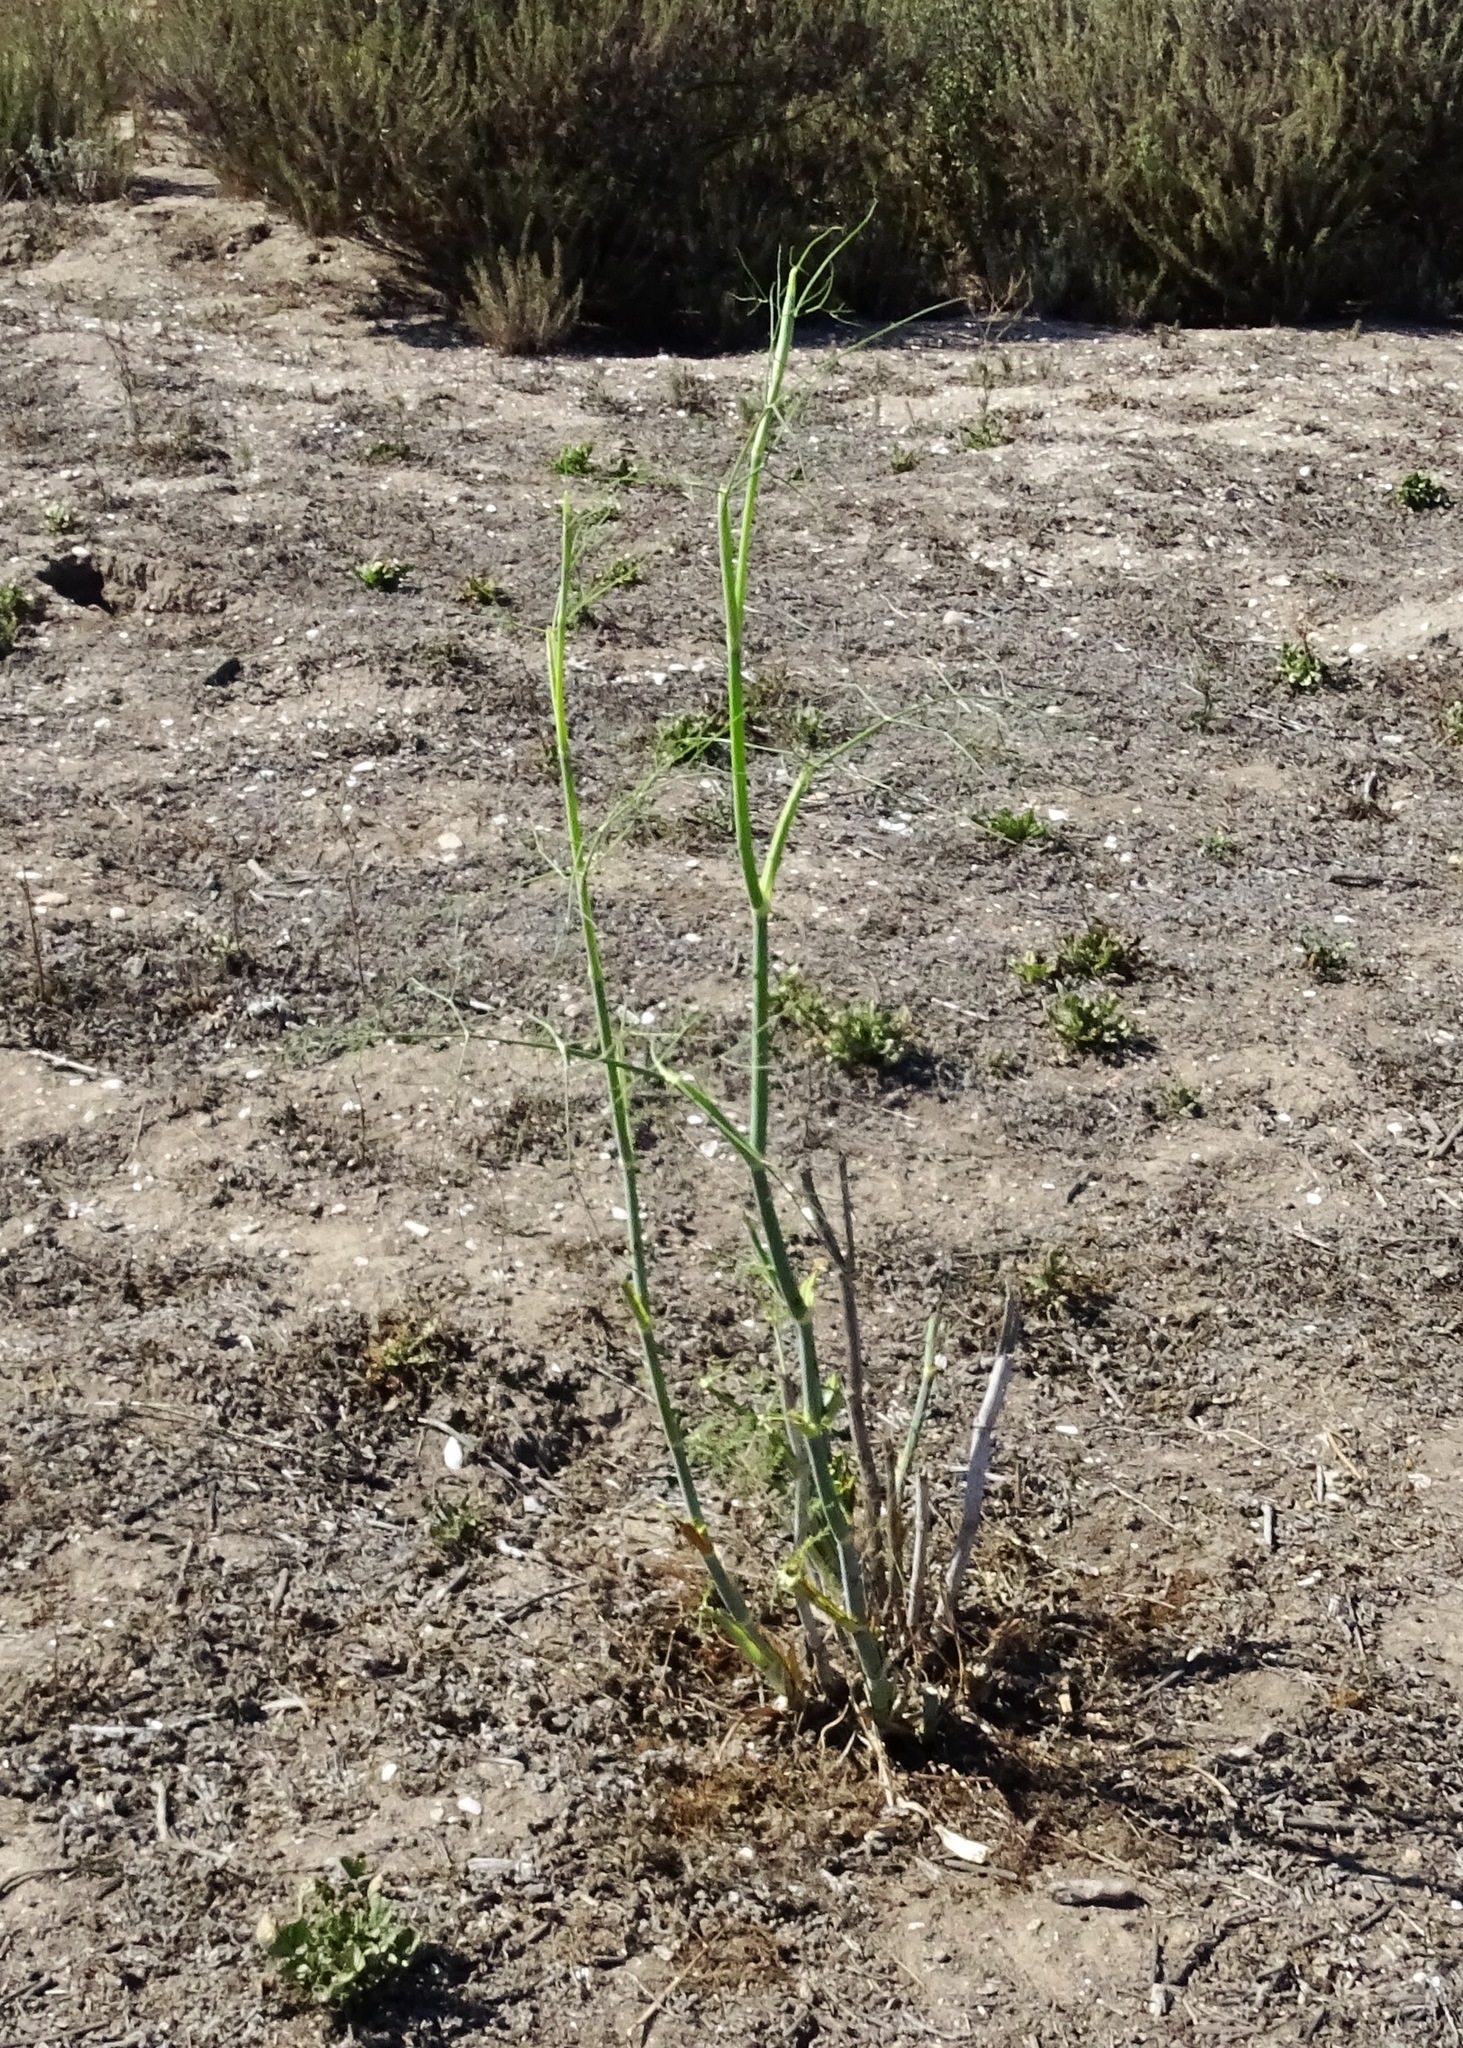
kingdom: Plantae
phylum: Tracheophyta
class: Magnoliopsida
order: Apiales
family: Apiaceae
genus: Foeniculum
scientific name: Foeniculum vulgare
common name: Fennel
